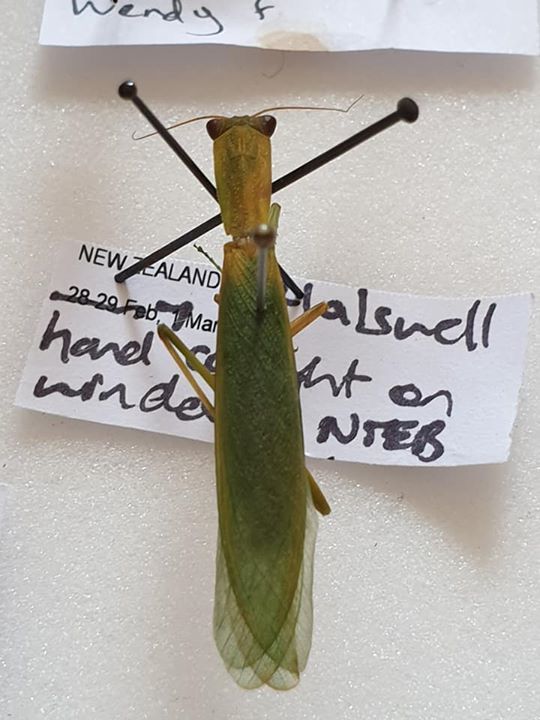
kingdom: Animalia
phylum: Arthropoda
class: Insecta
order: Mantodea
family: Mantidae
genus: Orthodera
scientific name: Orthodera novaezealandiae
